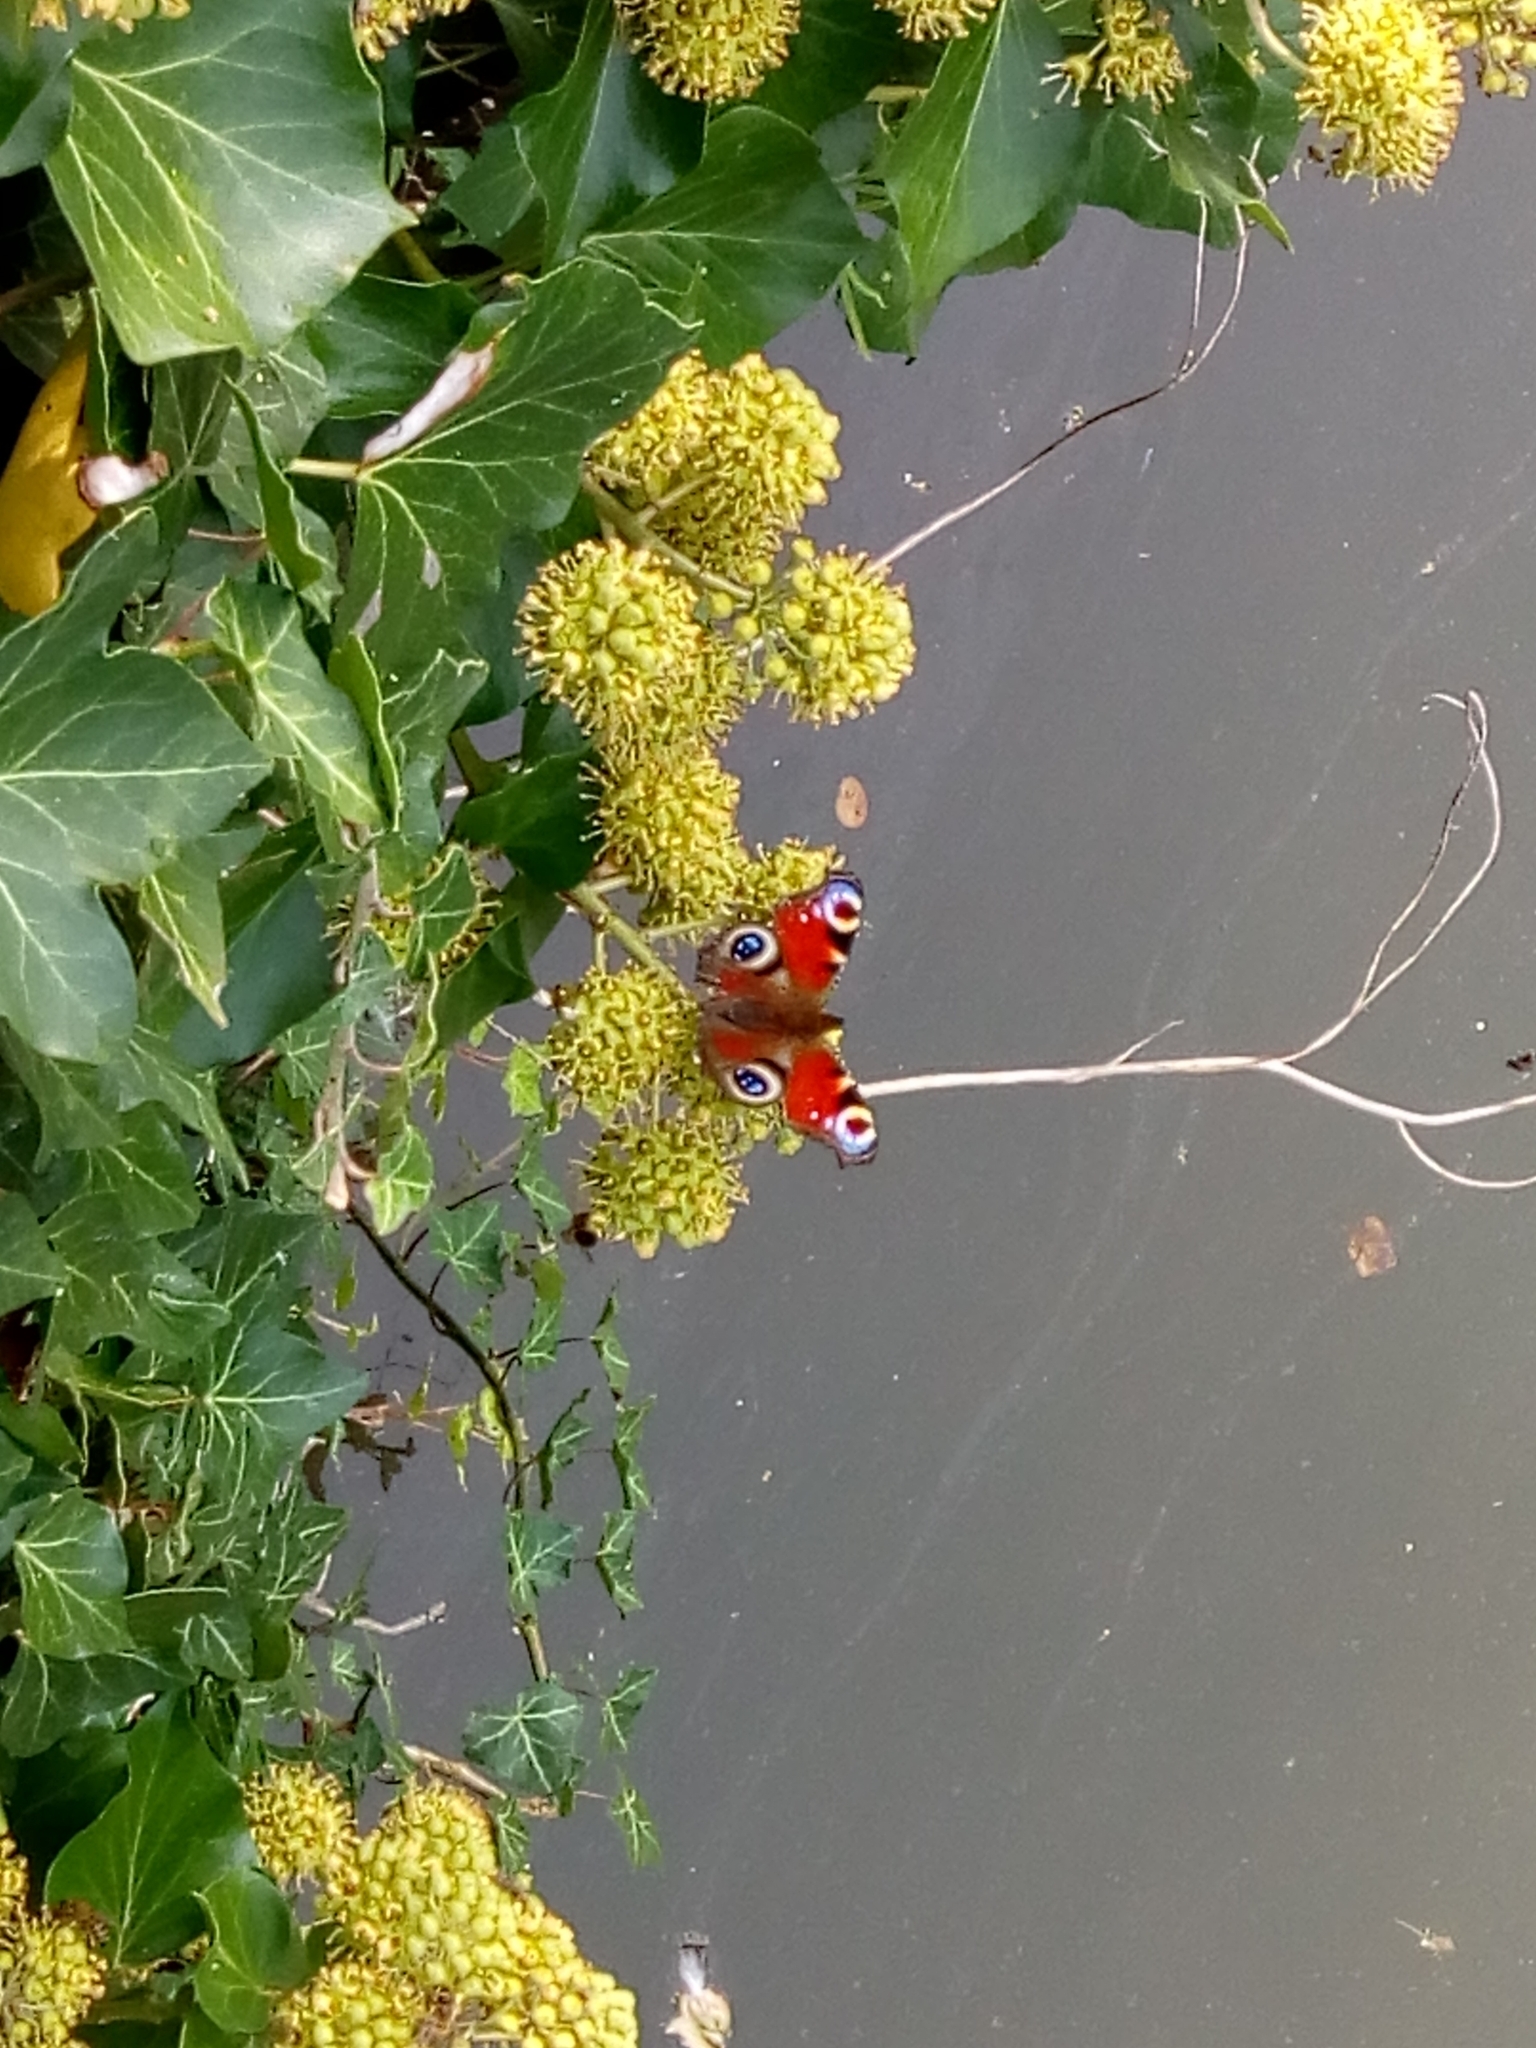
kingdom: Animalia
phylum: Arthropoda
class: Insecta
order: Lepidoptera
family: Nymphalidae
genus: Aglais
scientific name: Aglais io
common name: Peacock
